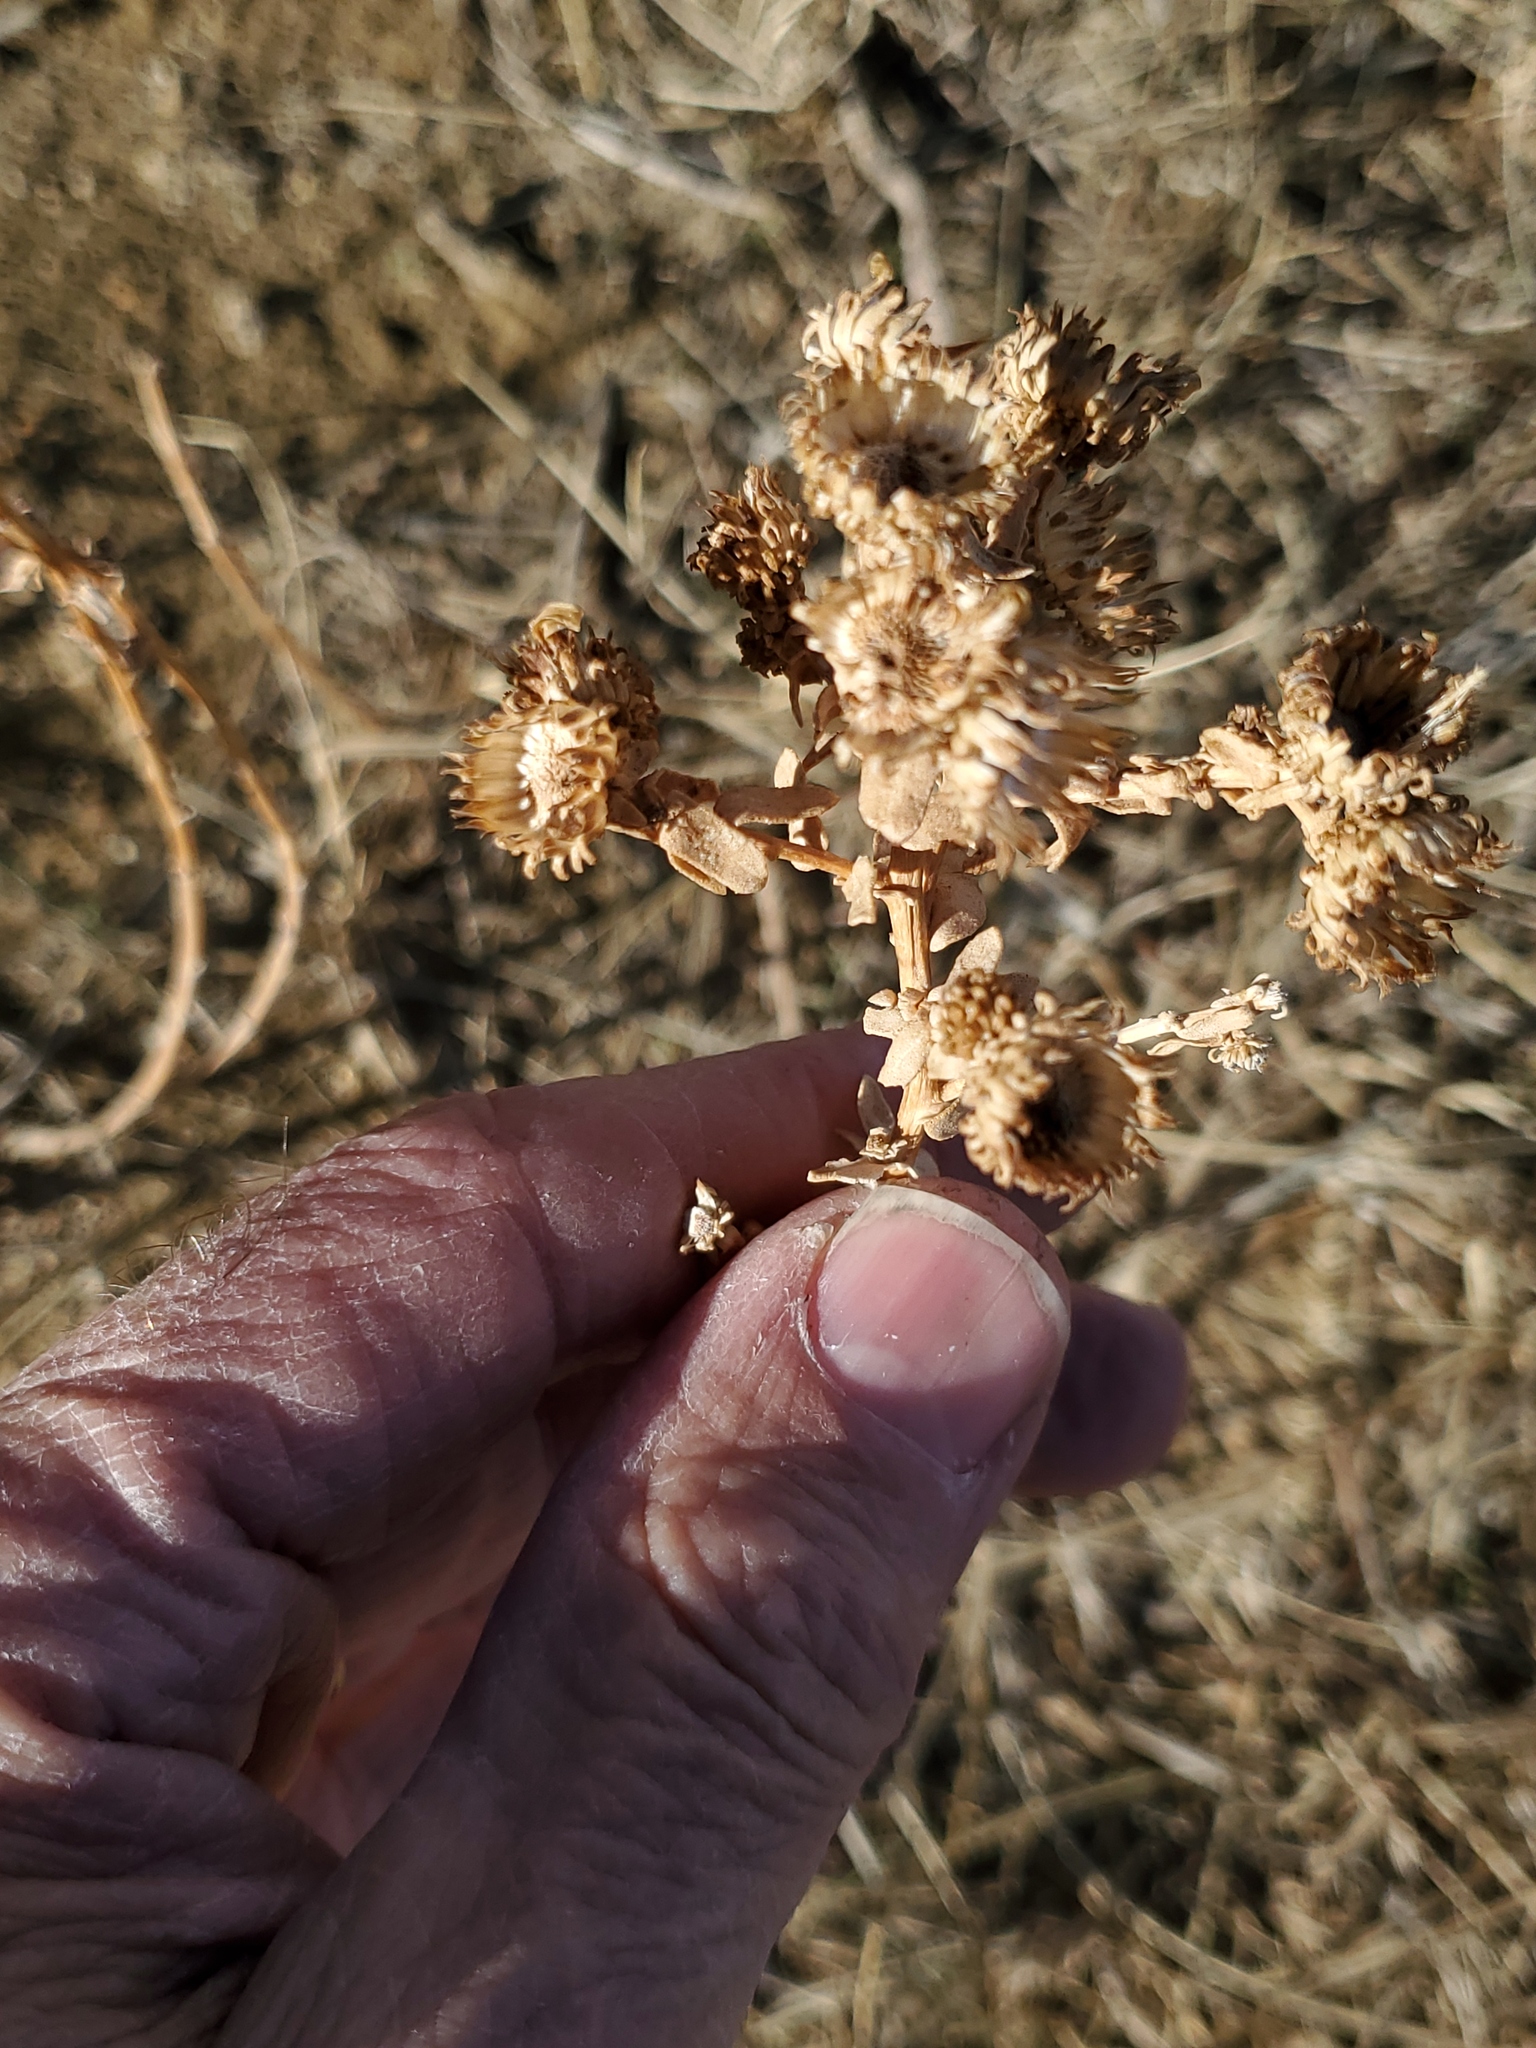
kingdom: Plantae
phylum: Tracheophyta
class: Magnoliopsida
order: Asterales
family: Asteraceae
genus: Grindelia
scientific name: Grindelia squarrosa
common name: Curly-cup gumweed
